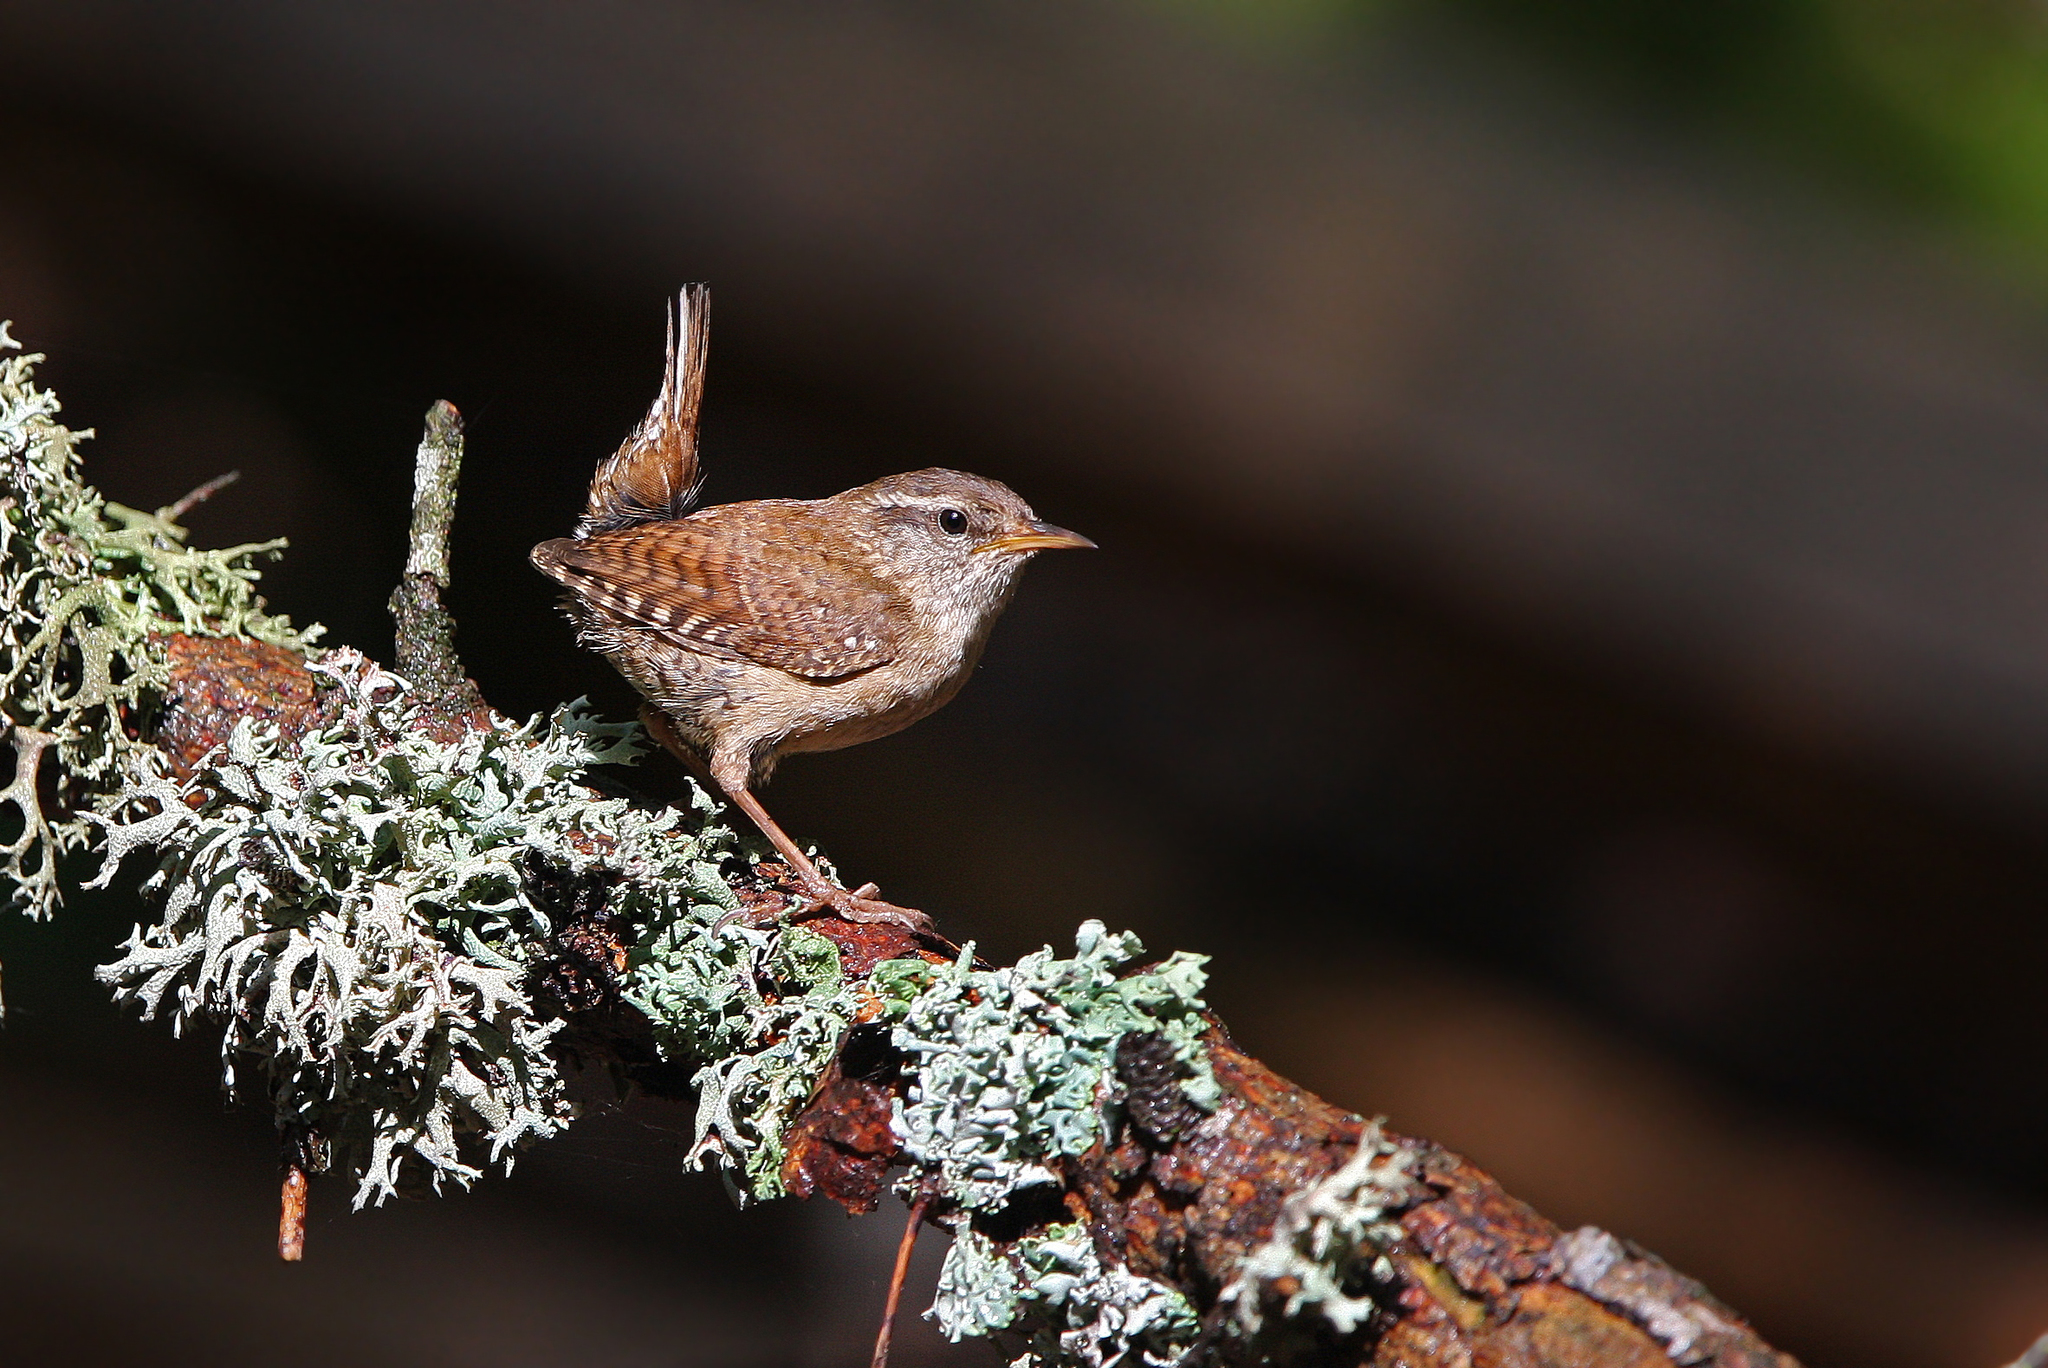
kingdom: Animalia
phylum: Chordata
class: Aves
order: Passeriformes
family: Troglodytidae
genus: Troglodytes
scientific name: Troglodytes troglodytes
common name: Eurasian wren
